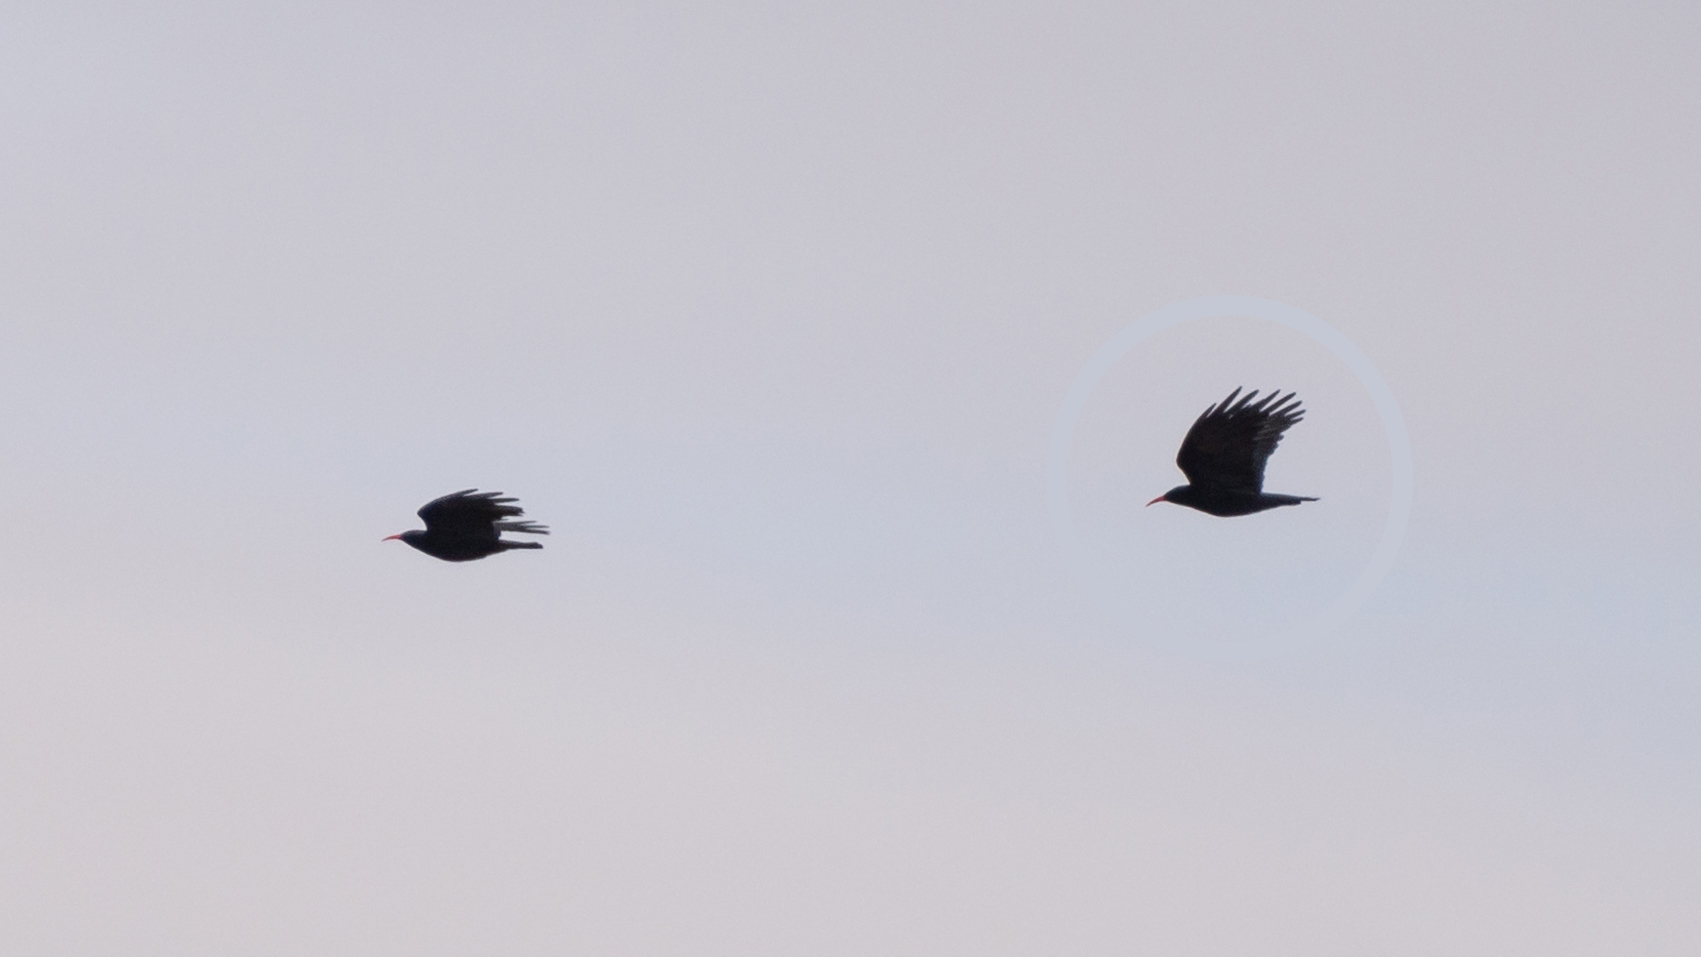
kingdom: Animalia
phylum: Chordata
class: Aves
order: Passeriformes
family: Corvidae
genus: Pyrrhocorax
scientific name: Pyrrhocorax pyrrhocorax
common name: Red-billed chough
